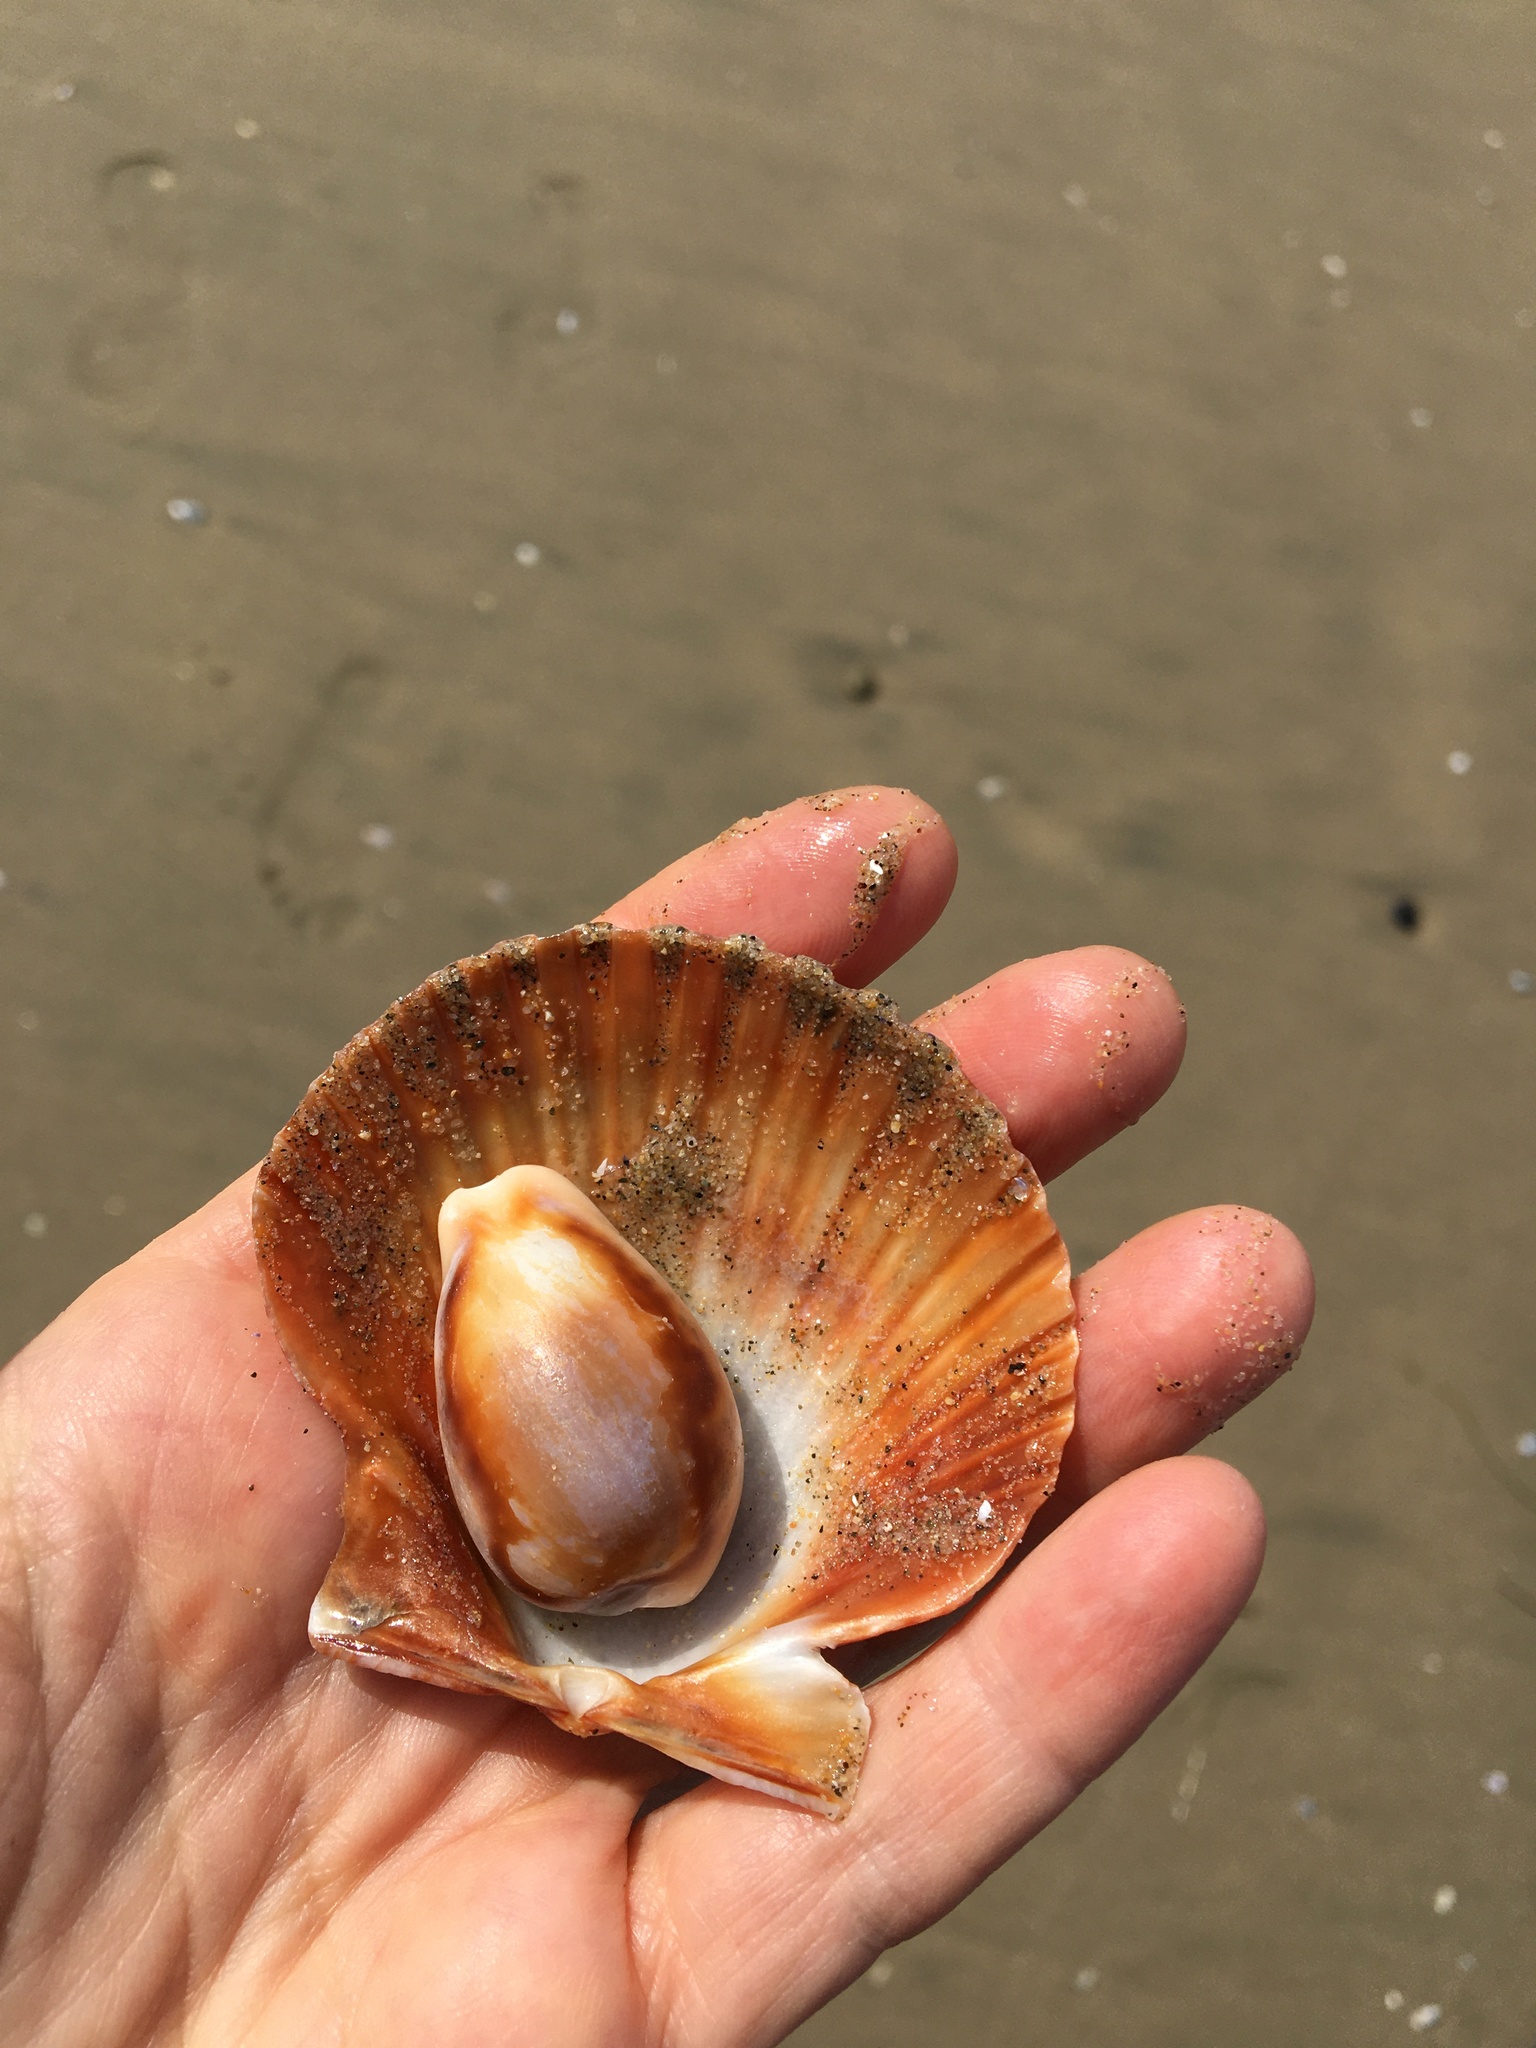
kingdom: Animalia
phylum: Mollusca
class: Gastropoda
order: Littorinimorpha
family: Cypraeidae
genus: Neobernaya
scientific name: Neobernaya spadicea
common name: Chestnut cowrie
